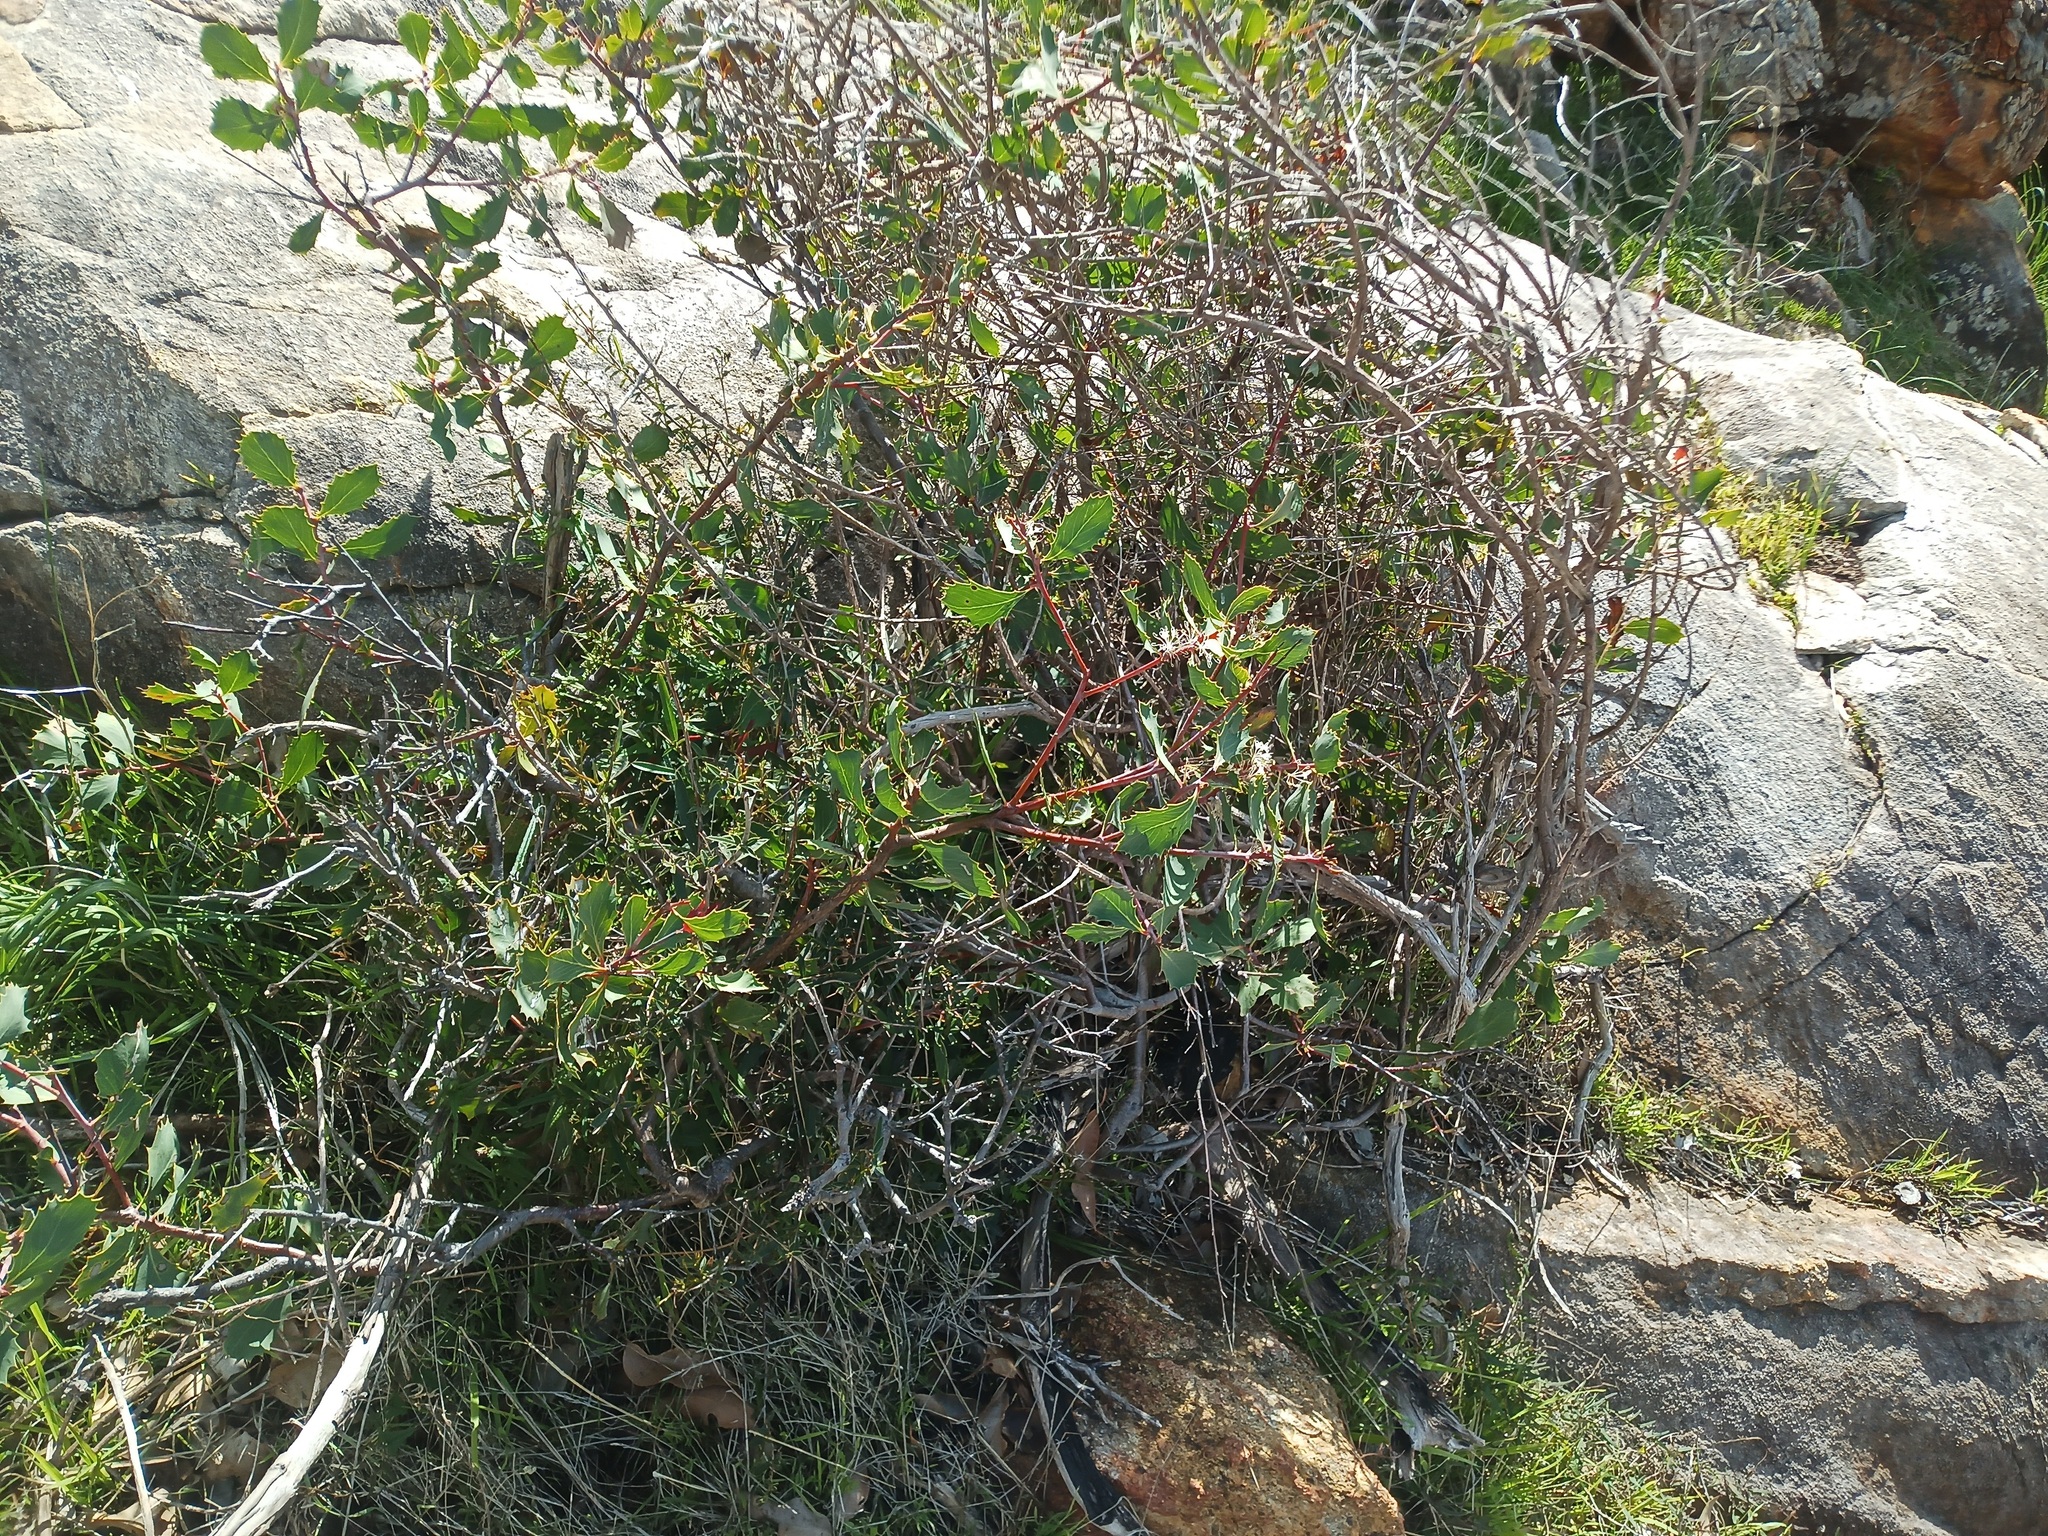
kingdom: Plantae
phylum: Tracheophyta
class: Magnoliopsida
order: Proteales
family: Proteaceae
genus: Hakea
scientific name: Hakea cristata
